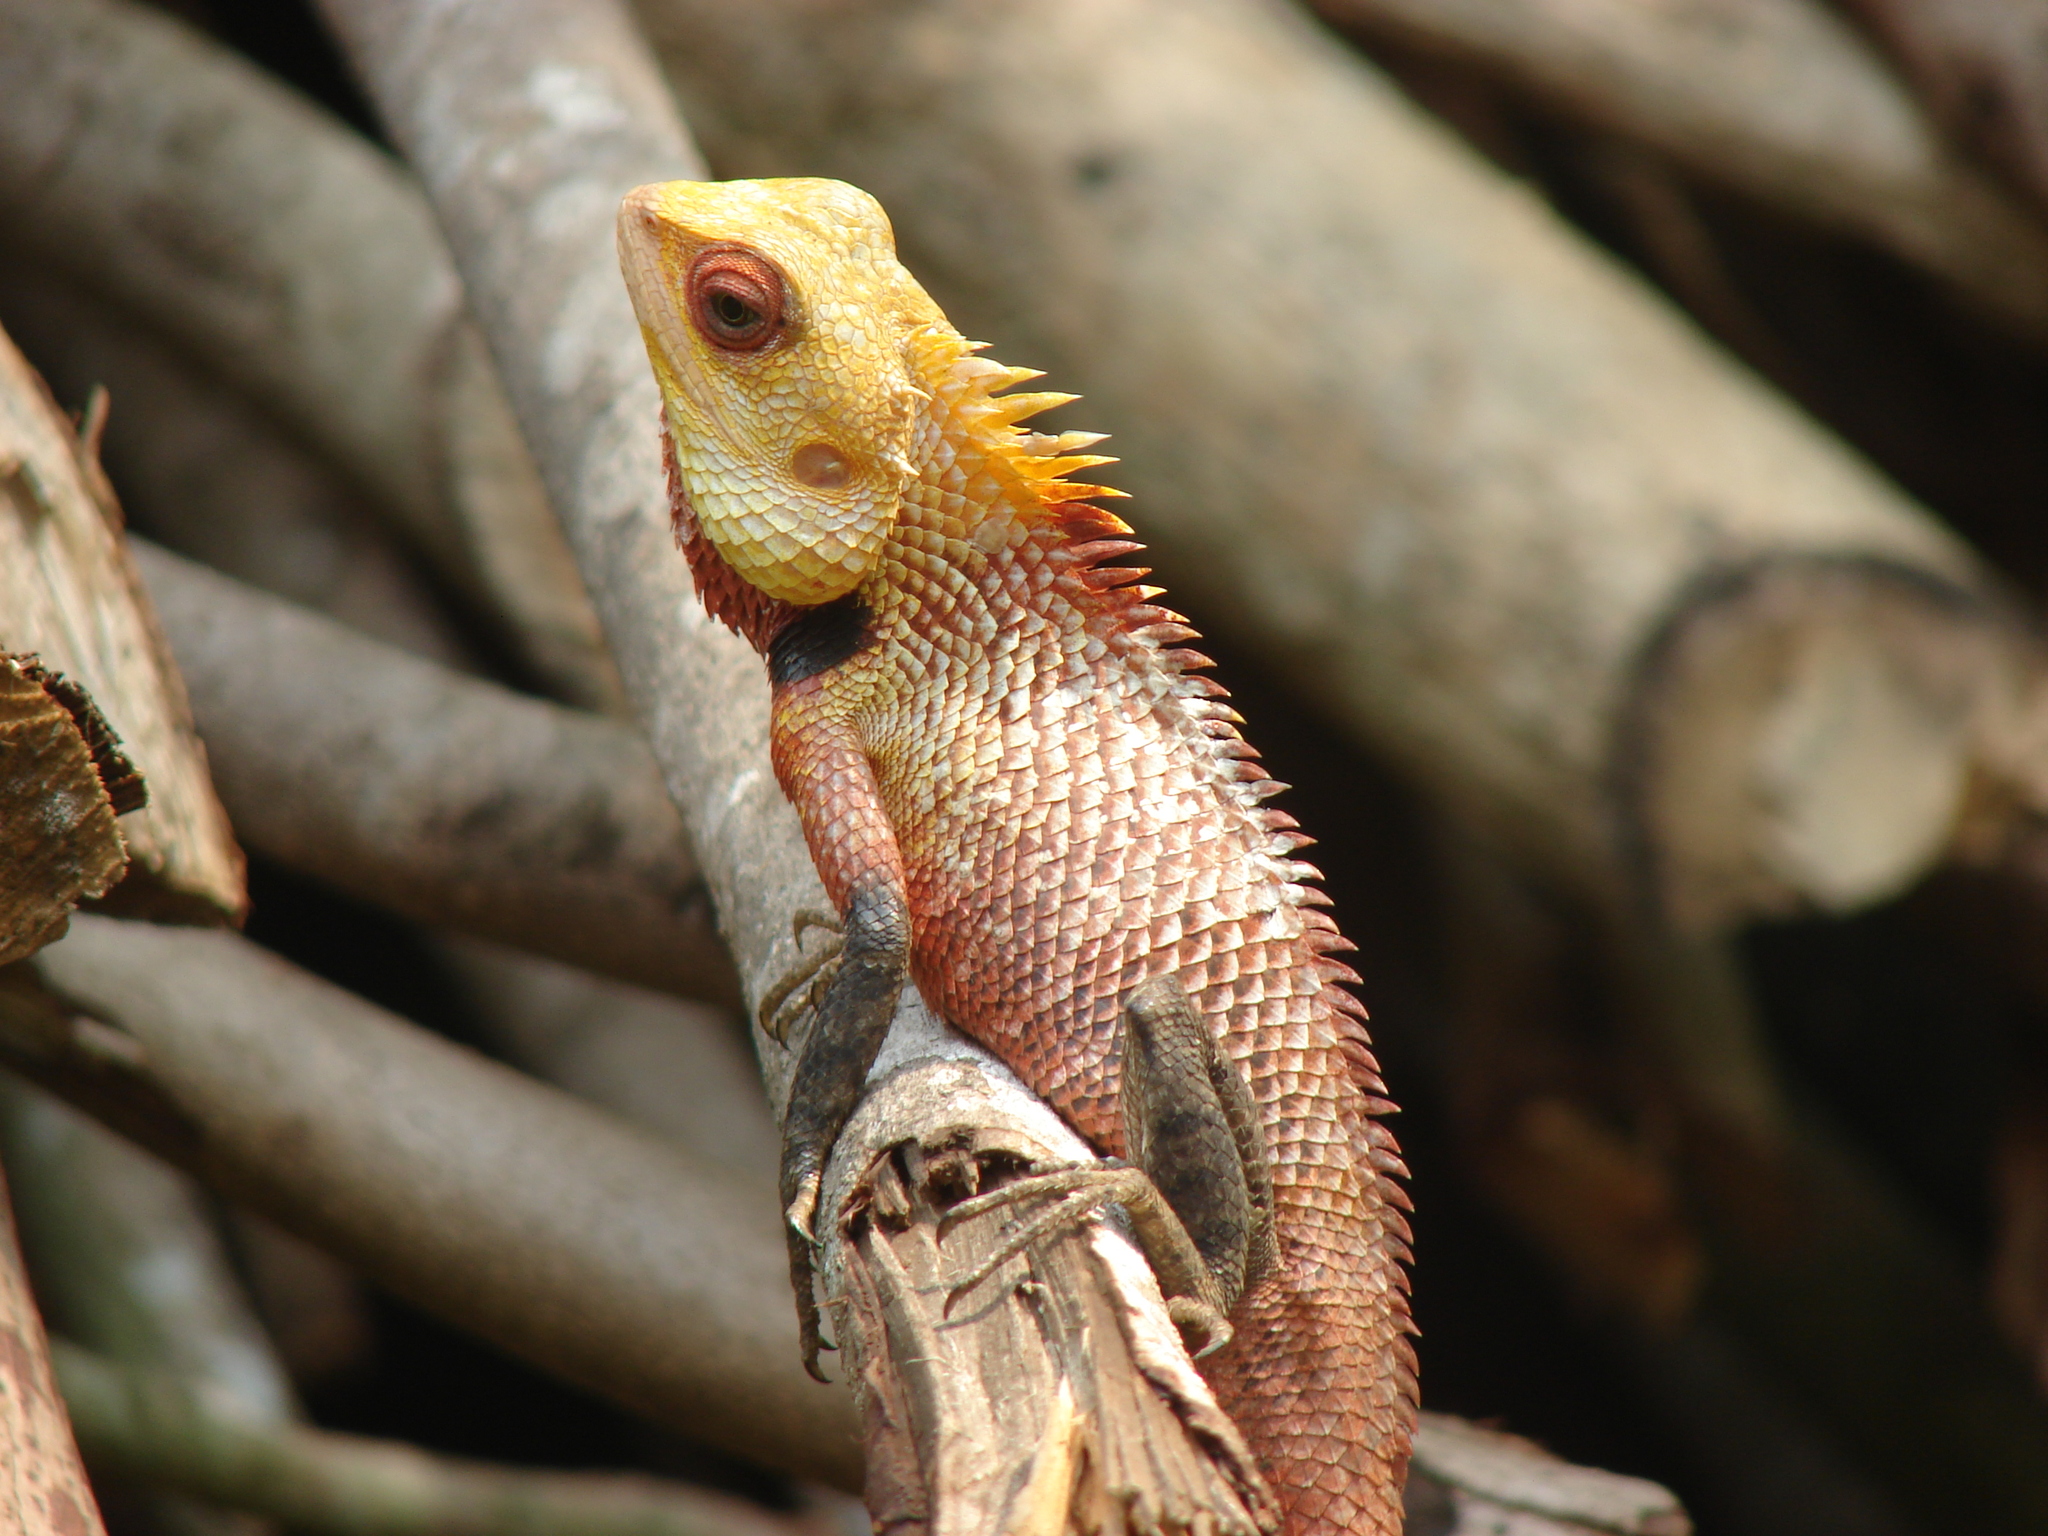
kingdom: Animalia
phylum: Chordata
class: Squamata
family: Agamidae
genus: Calotes
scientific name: Calotes versicolor
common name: Oriental garden lizard
